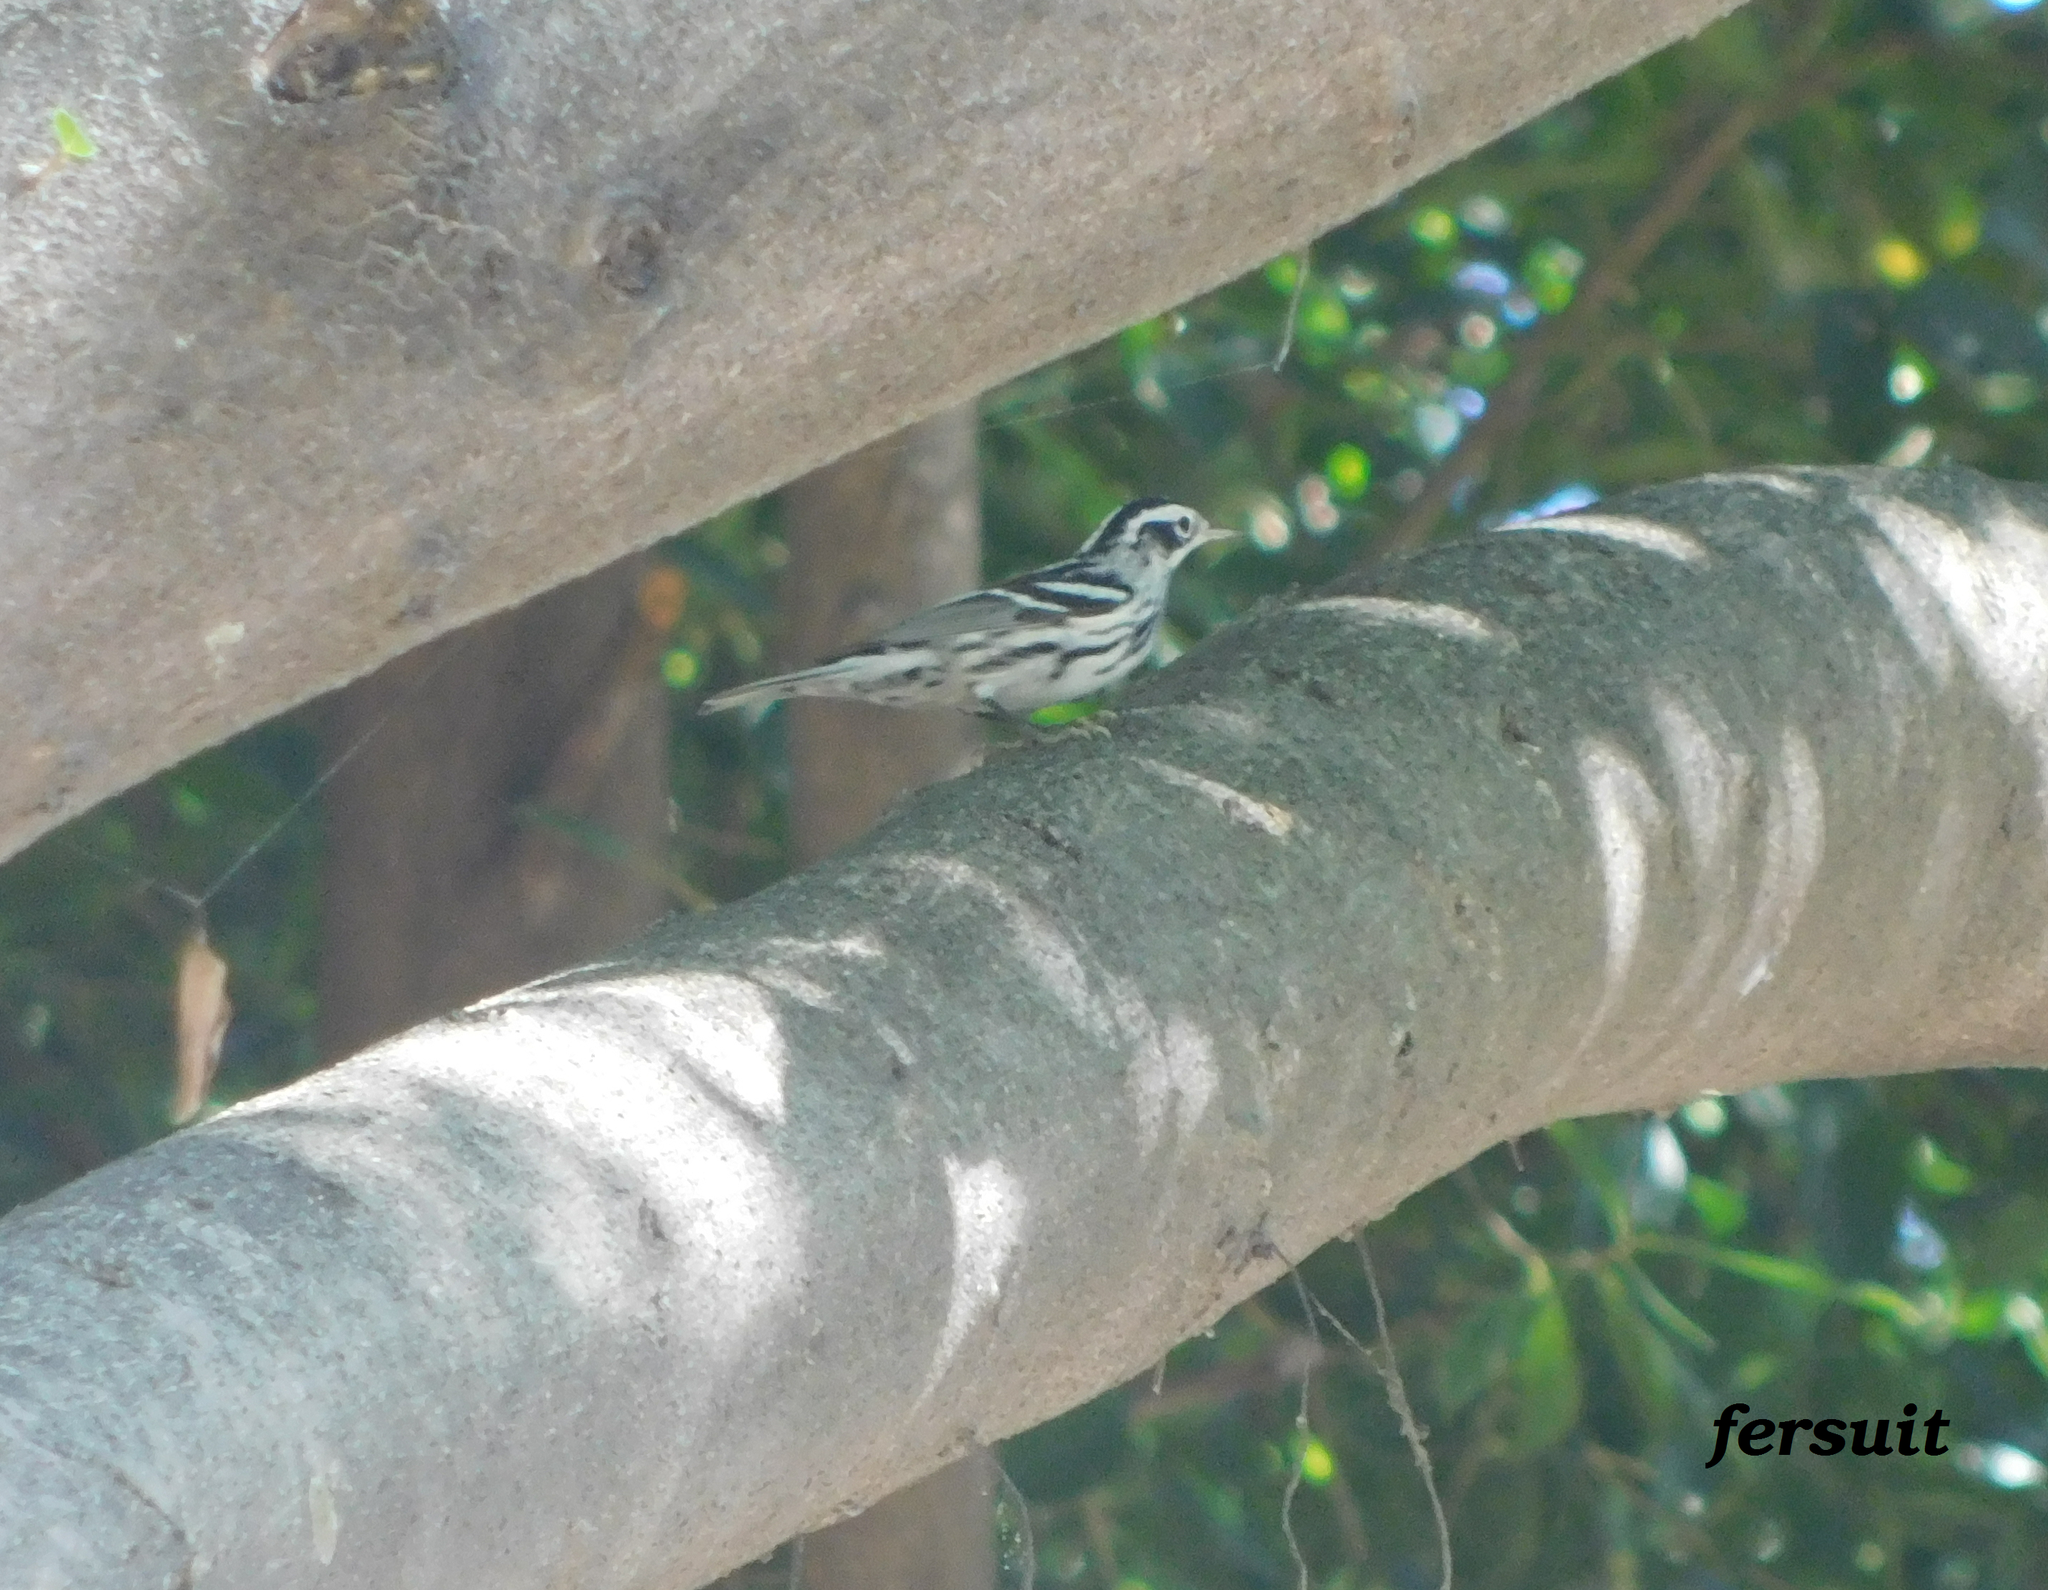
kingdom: Animalia
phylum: Chordata
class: Aves
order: Passeriformes
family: Parulidae
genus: Mniotilta
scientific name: Mniotilta varia
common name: Black-and-white warbler
